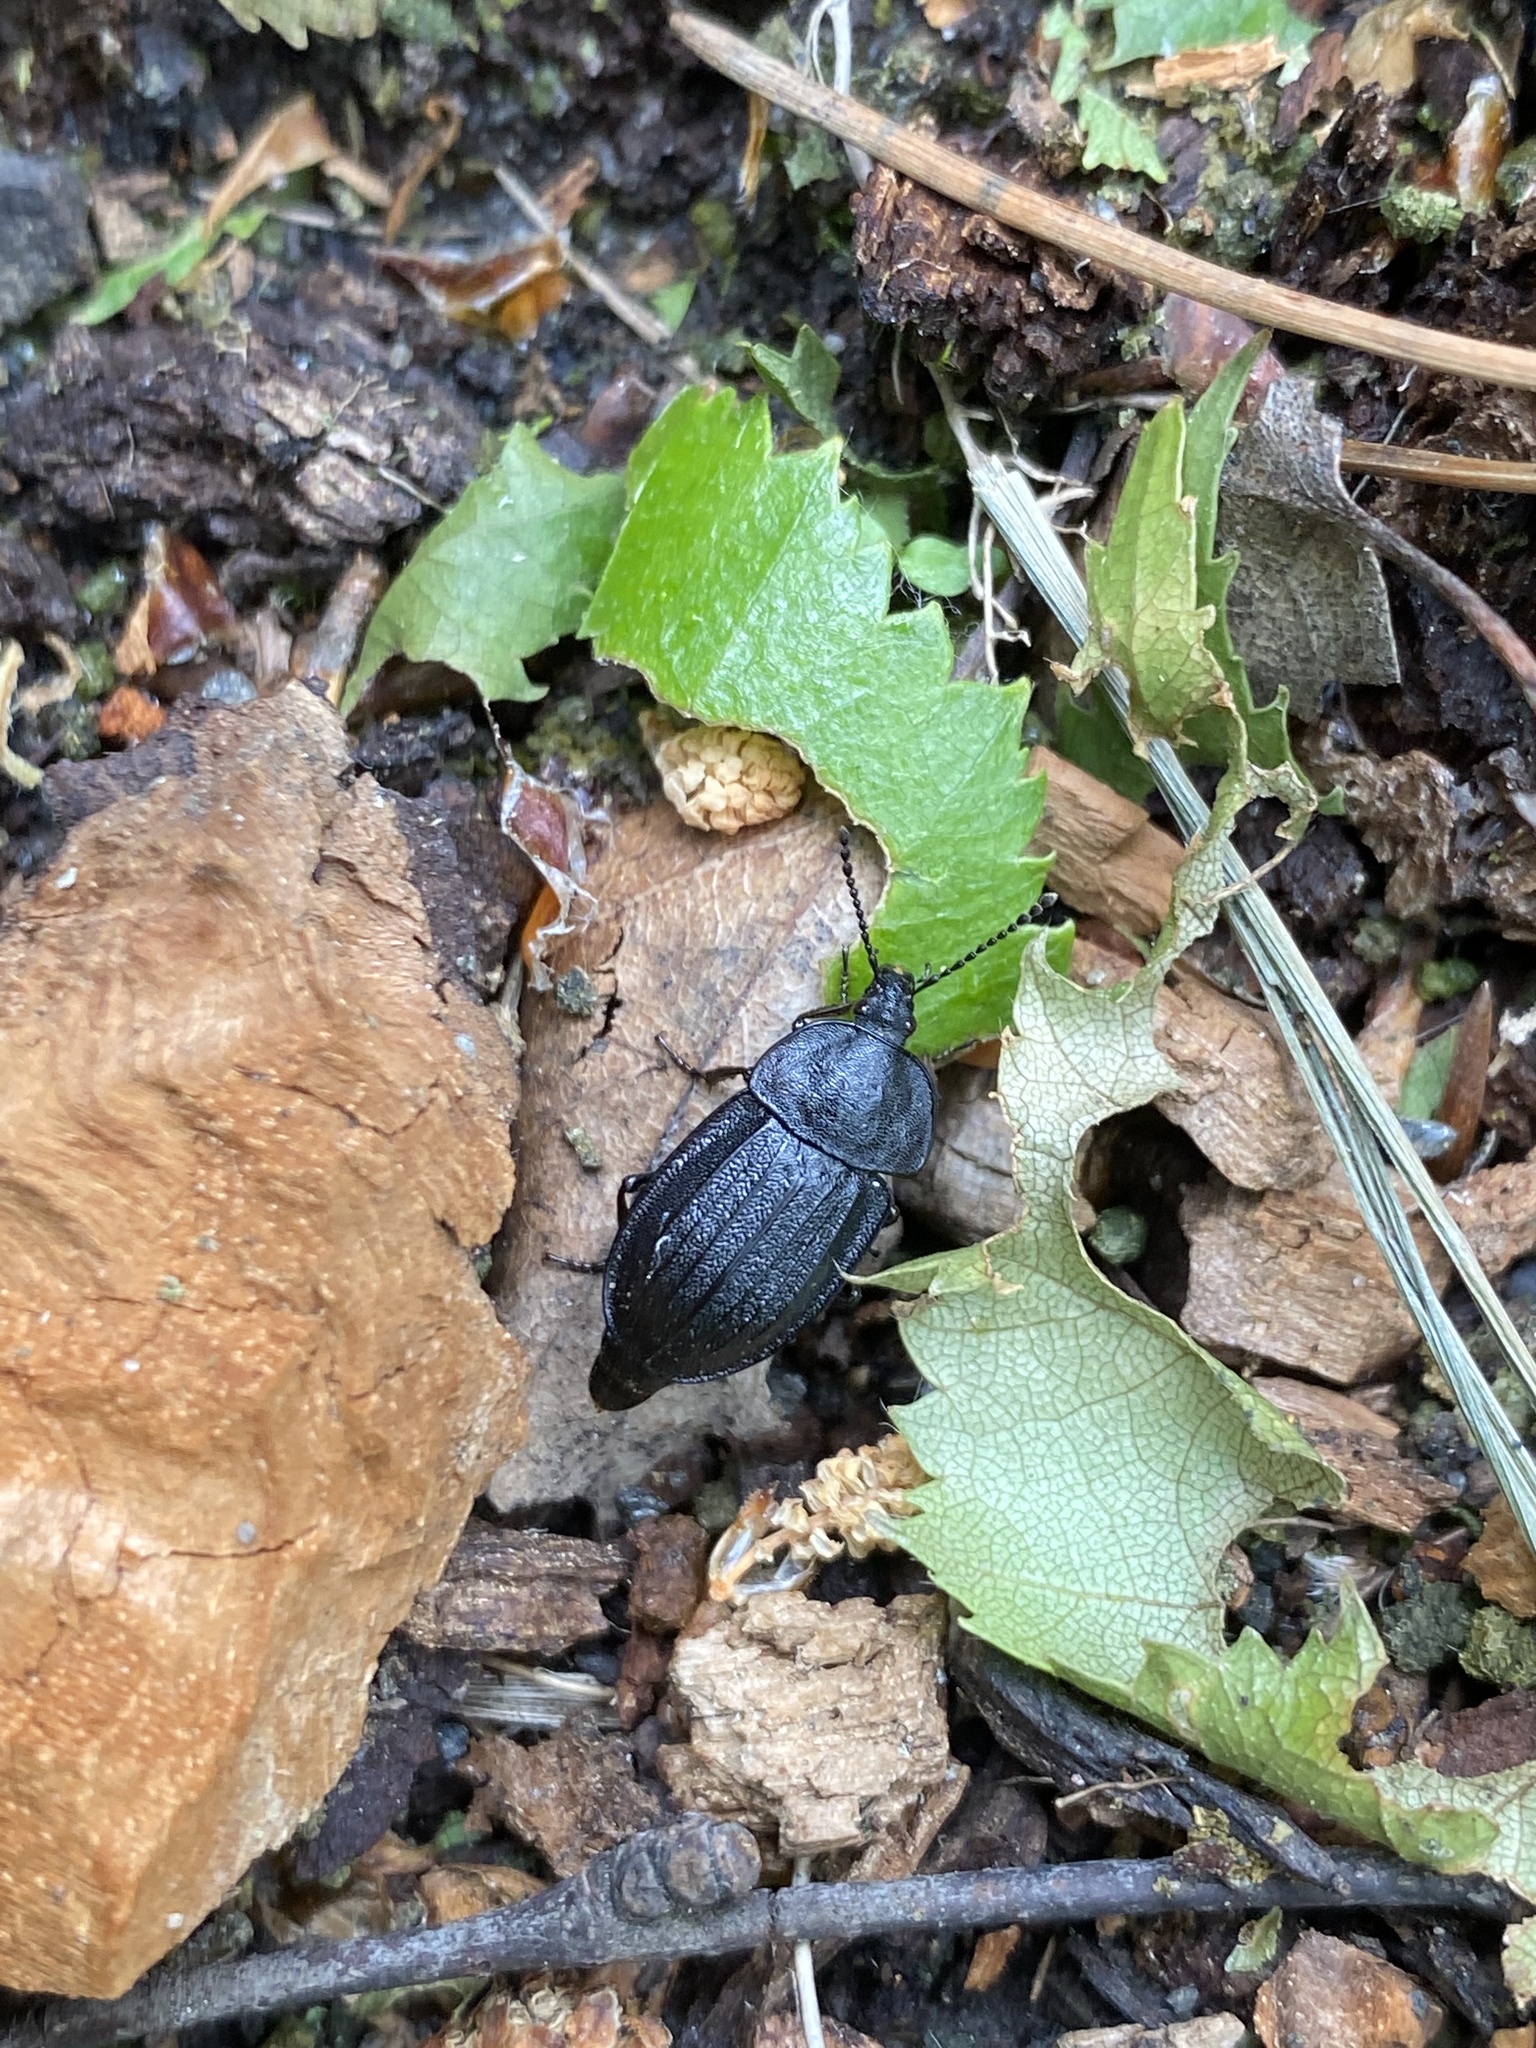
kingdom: Animalia
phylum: Arthropoda
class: Insecta
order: Coleoptera
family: Staphylinidae
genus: Silpha
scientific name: Silpha atrata
